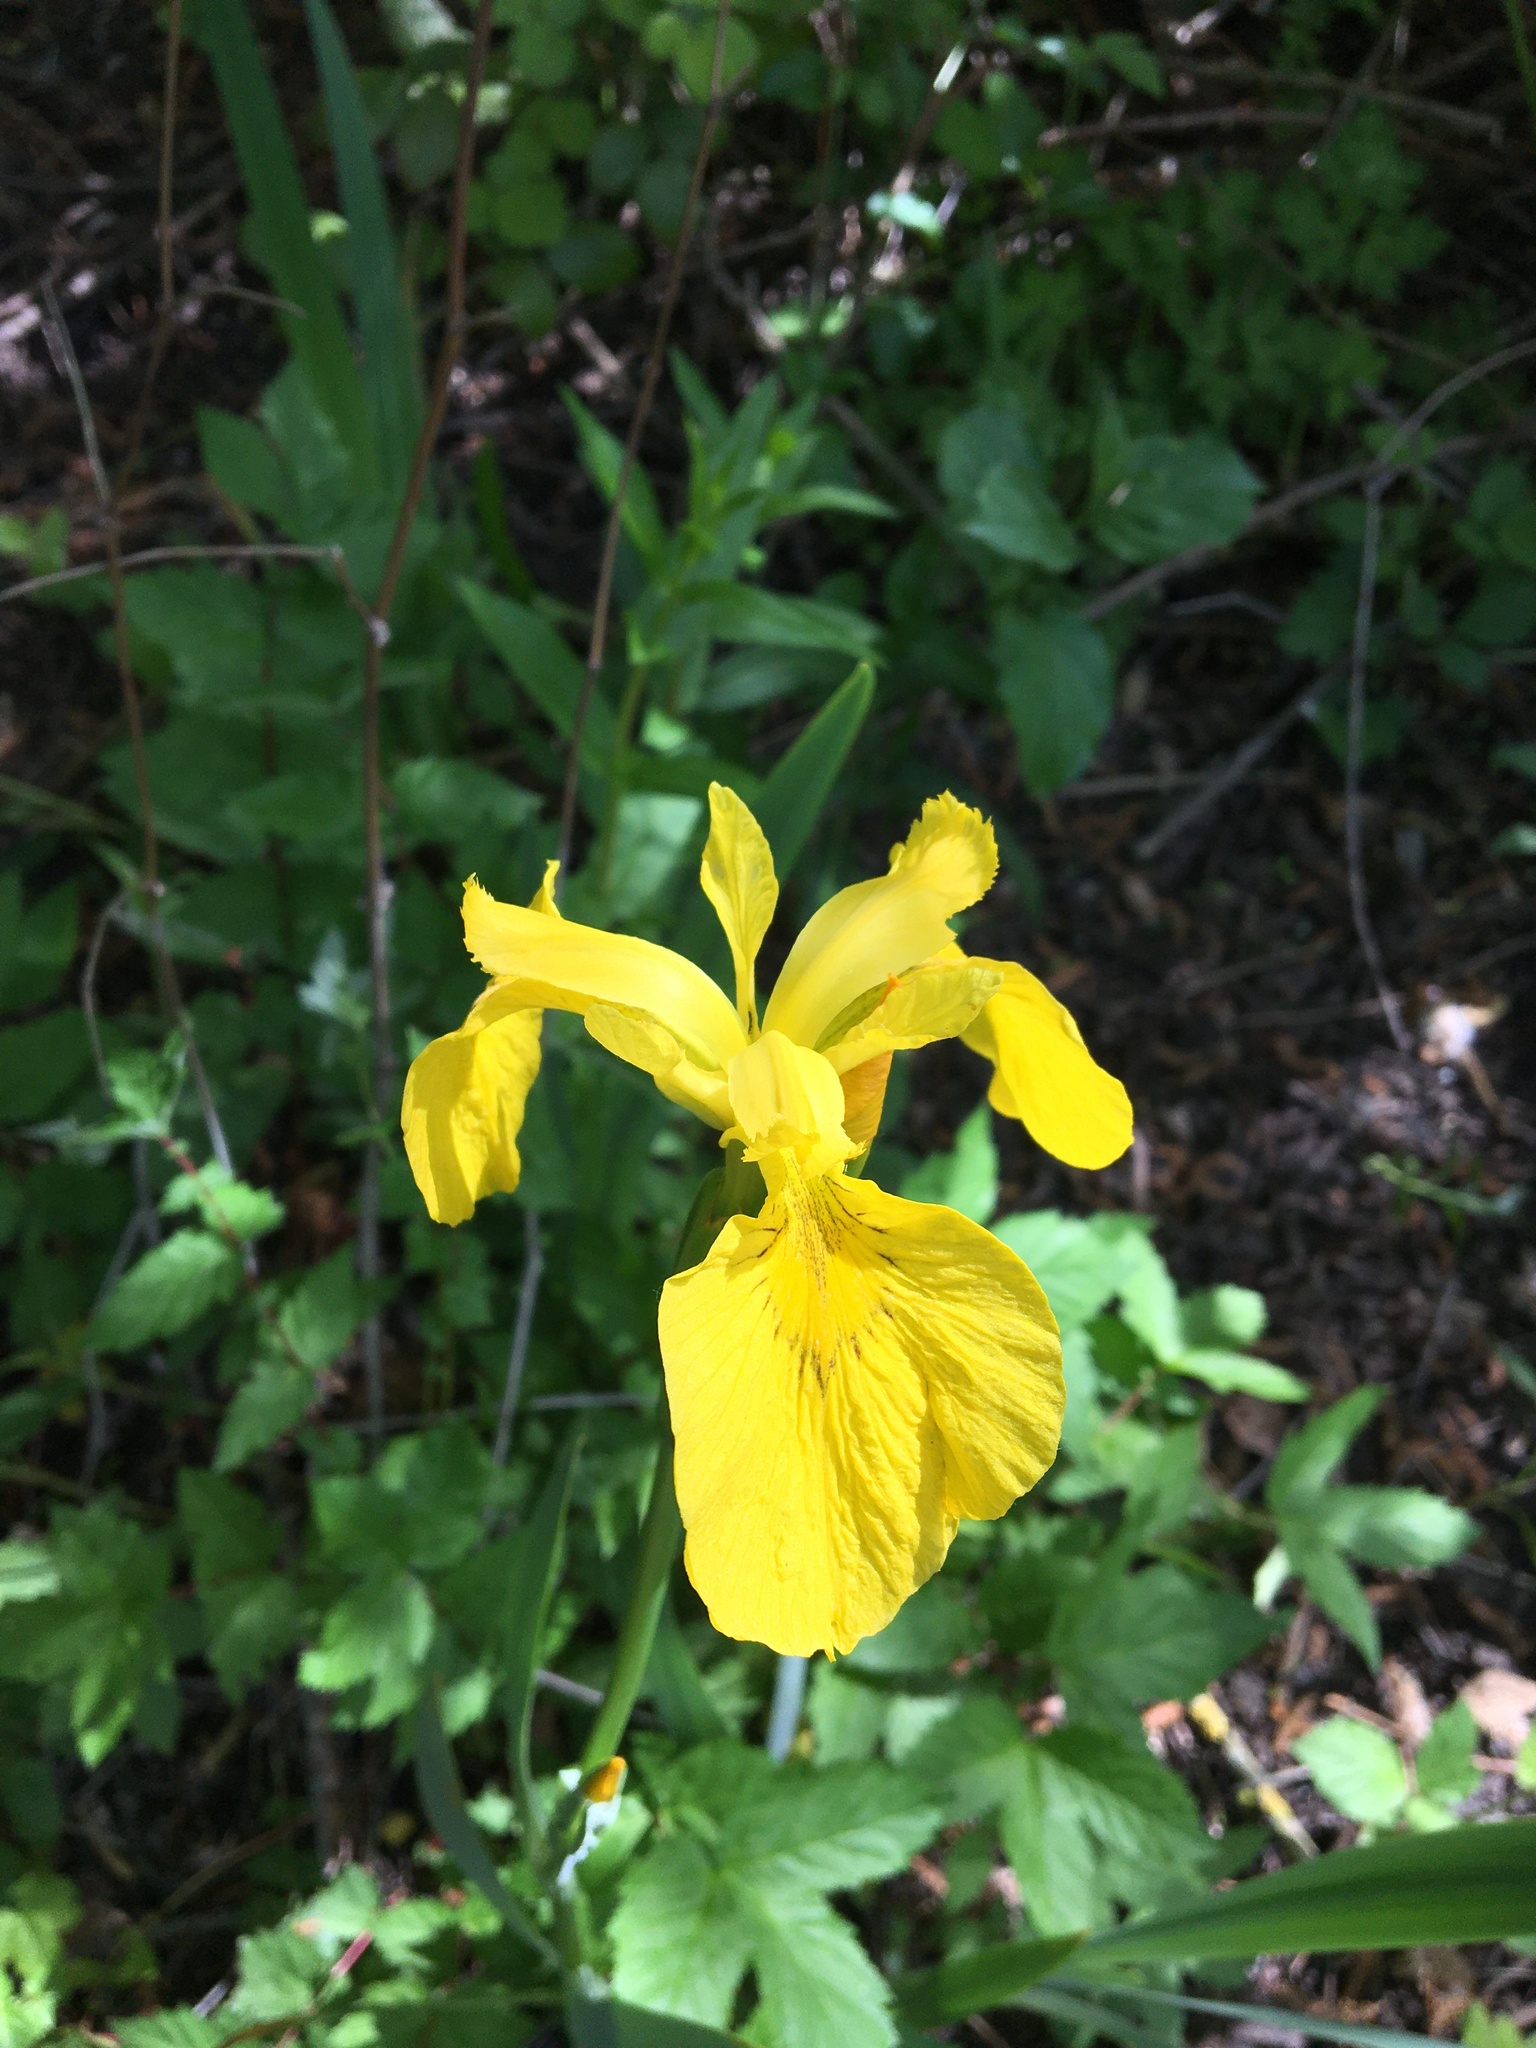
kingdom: Plantae
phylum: Tracheophyta
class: Liliopsida
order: Asparagales
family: Iridaceae
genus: Iris
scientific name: Iris pseudacorus
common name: Yellow flag
